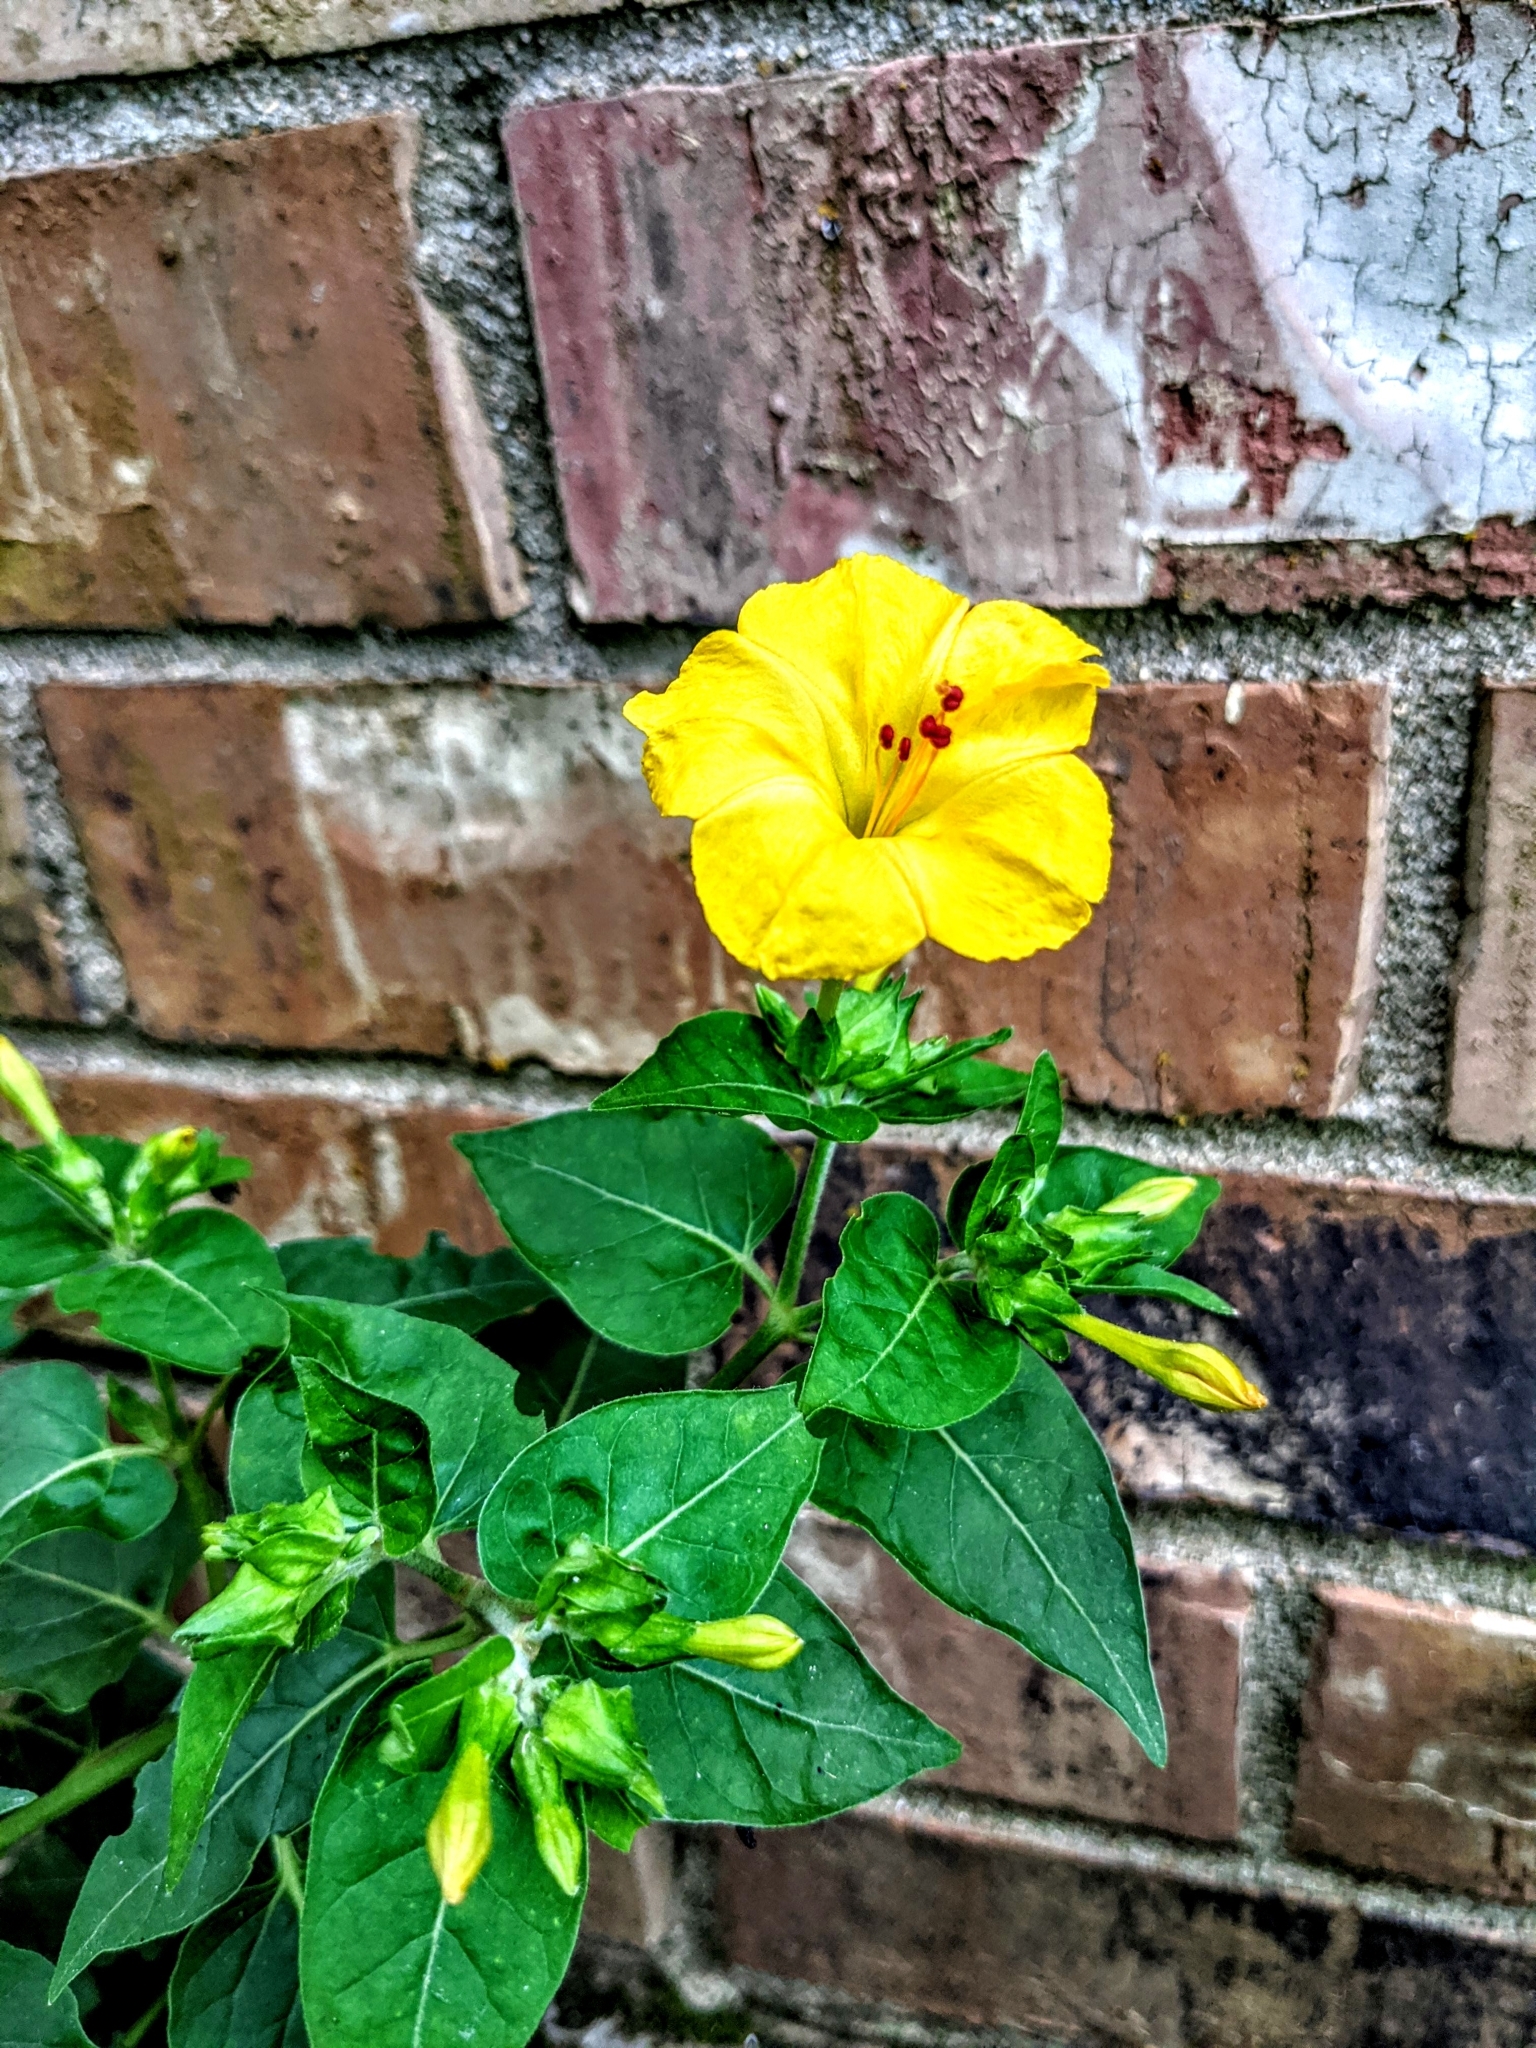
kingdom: Plantae
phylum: Tracheophyta
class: Magnoliopsida
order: Caryophyllales
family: Nyctaginaceae
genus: Mirabilis
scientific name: Mirabilis jalapa
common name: Marvel-of-peru
